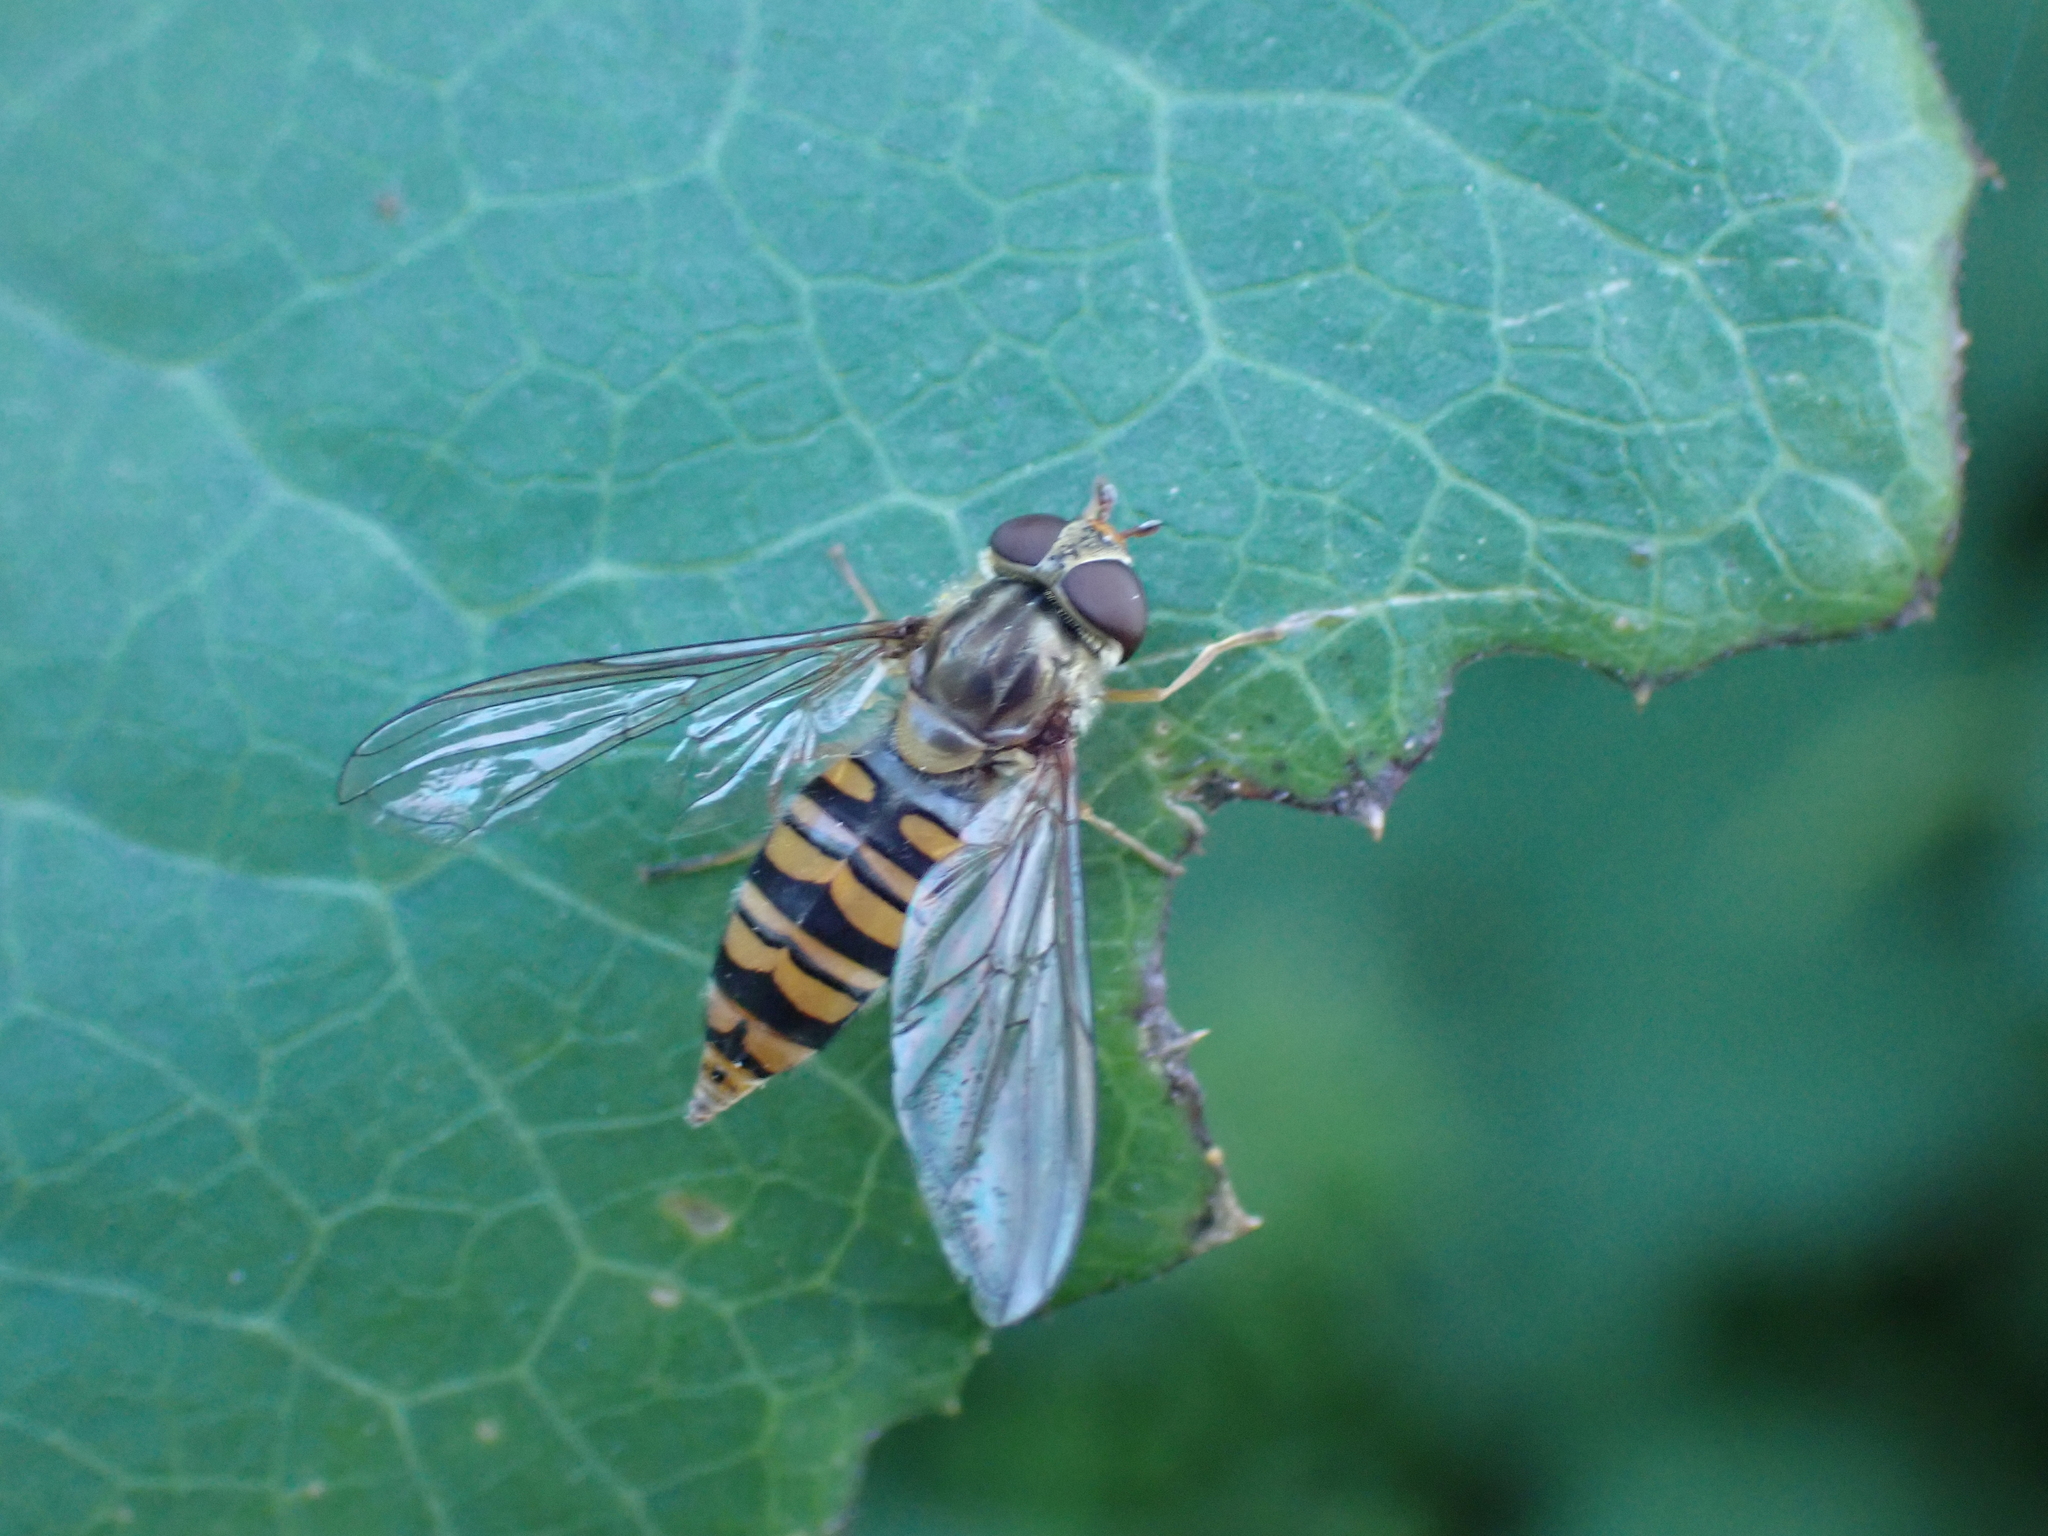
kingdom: Animalia
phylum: Arthropoda
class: Insecta
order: Diptera
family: Syrphidae
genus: Episyrphus
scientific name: Episyrphus balteatus
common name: Marmalade hoverfly
